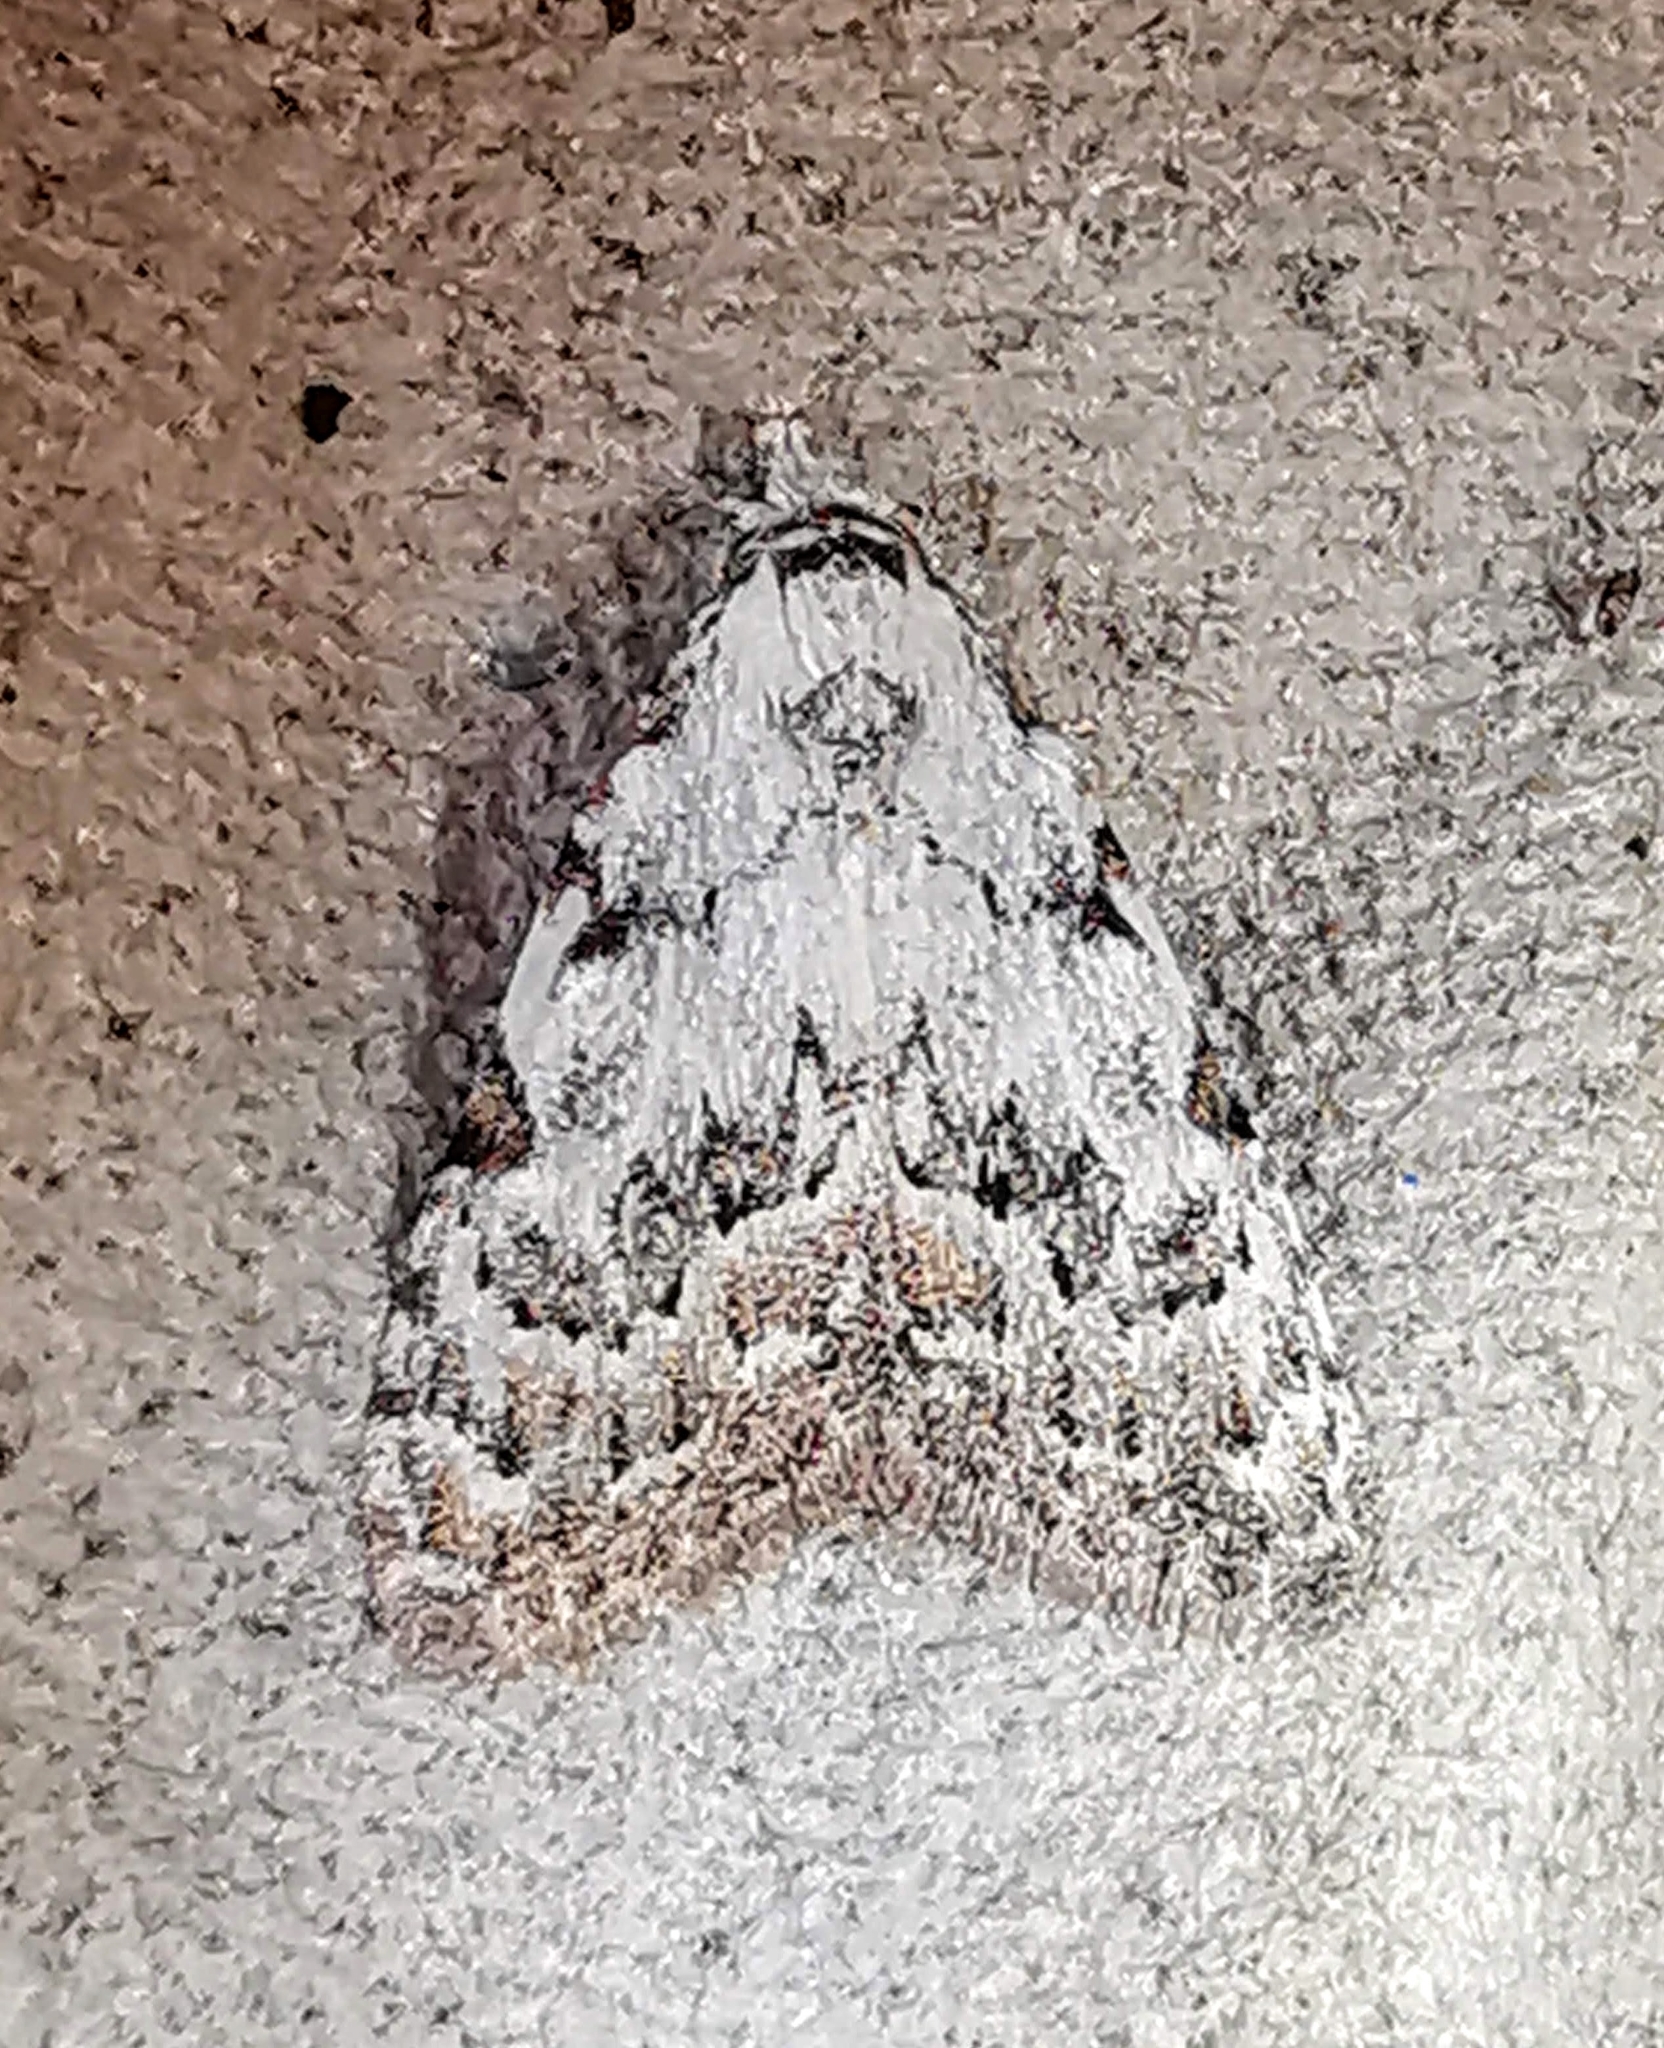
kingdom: Animalia
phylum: Arthropoda
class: Insecta
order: Lepidoptera
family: Nolidae
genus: Nola
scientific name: Nola confusalis
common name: Least black arches
